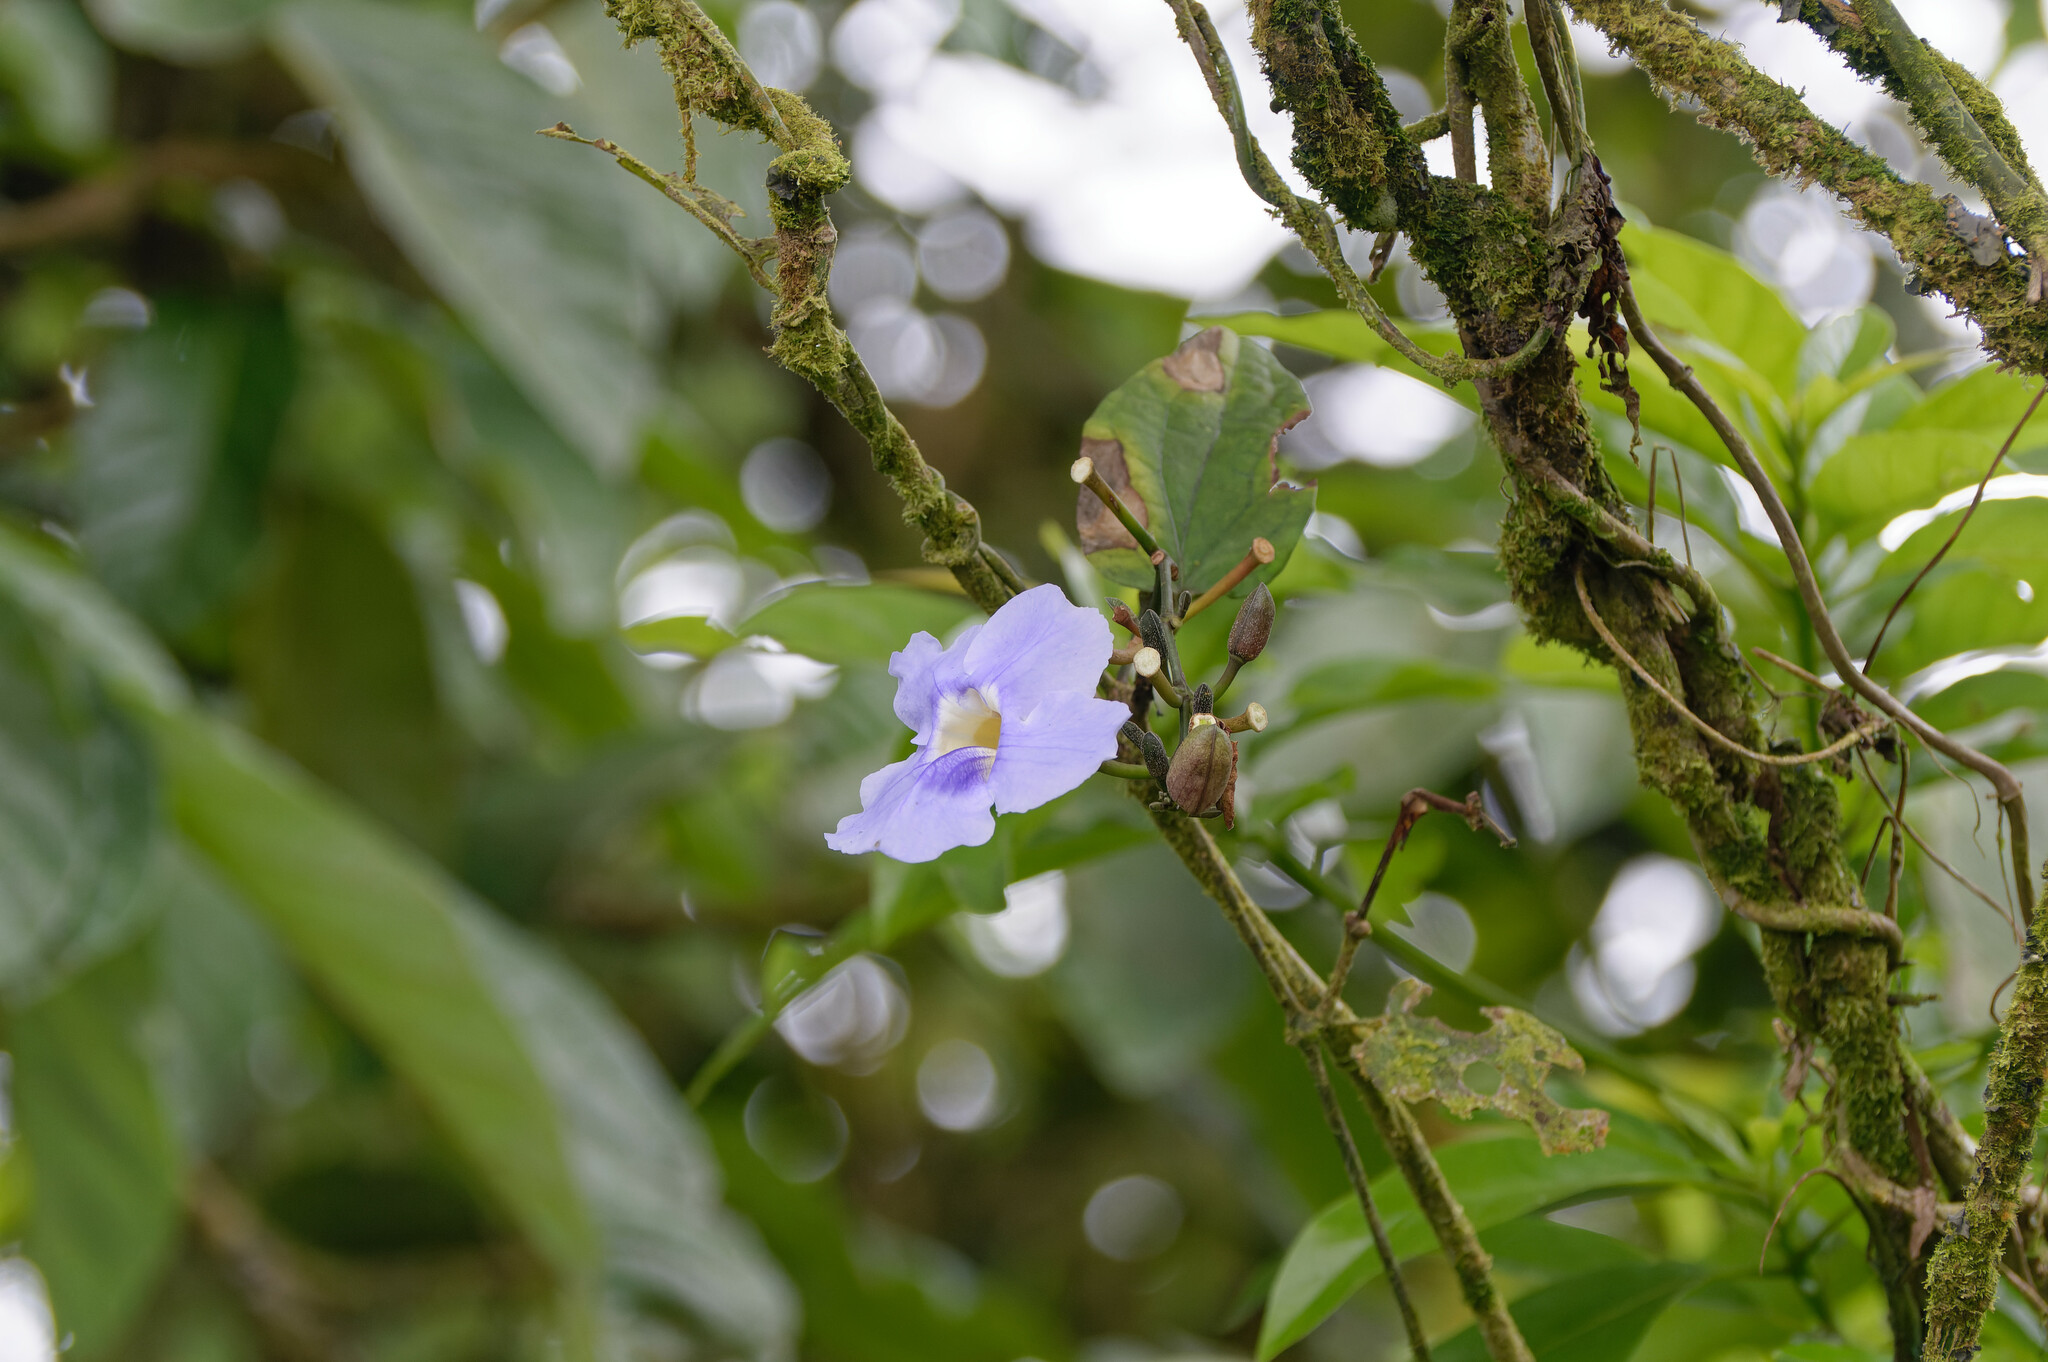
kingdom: Plantae
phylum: Tracheophyta
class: Magnoliopsida
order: Lamiales
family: Acanthaceae
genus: Thunbergia
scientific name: Thunbergia grandiflora
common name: Bengal trumpet
